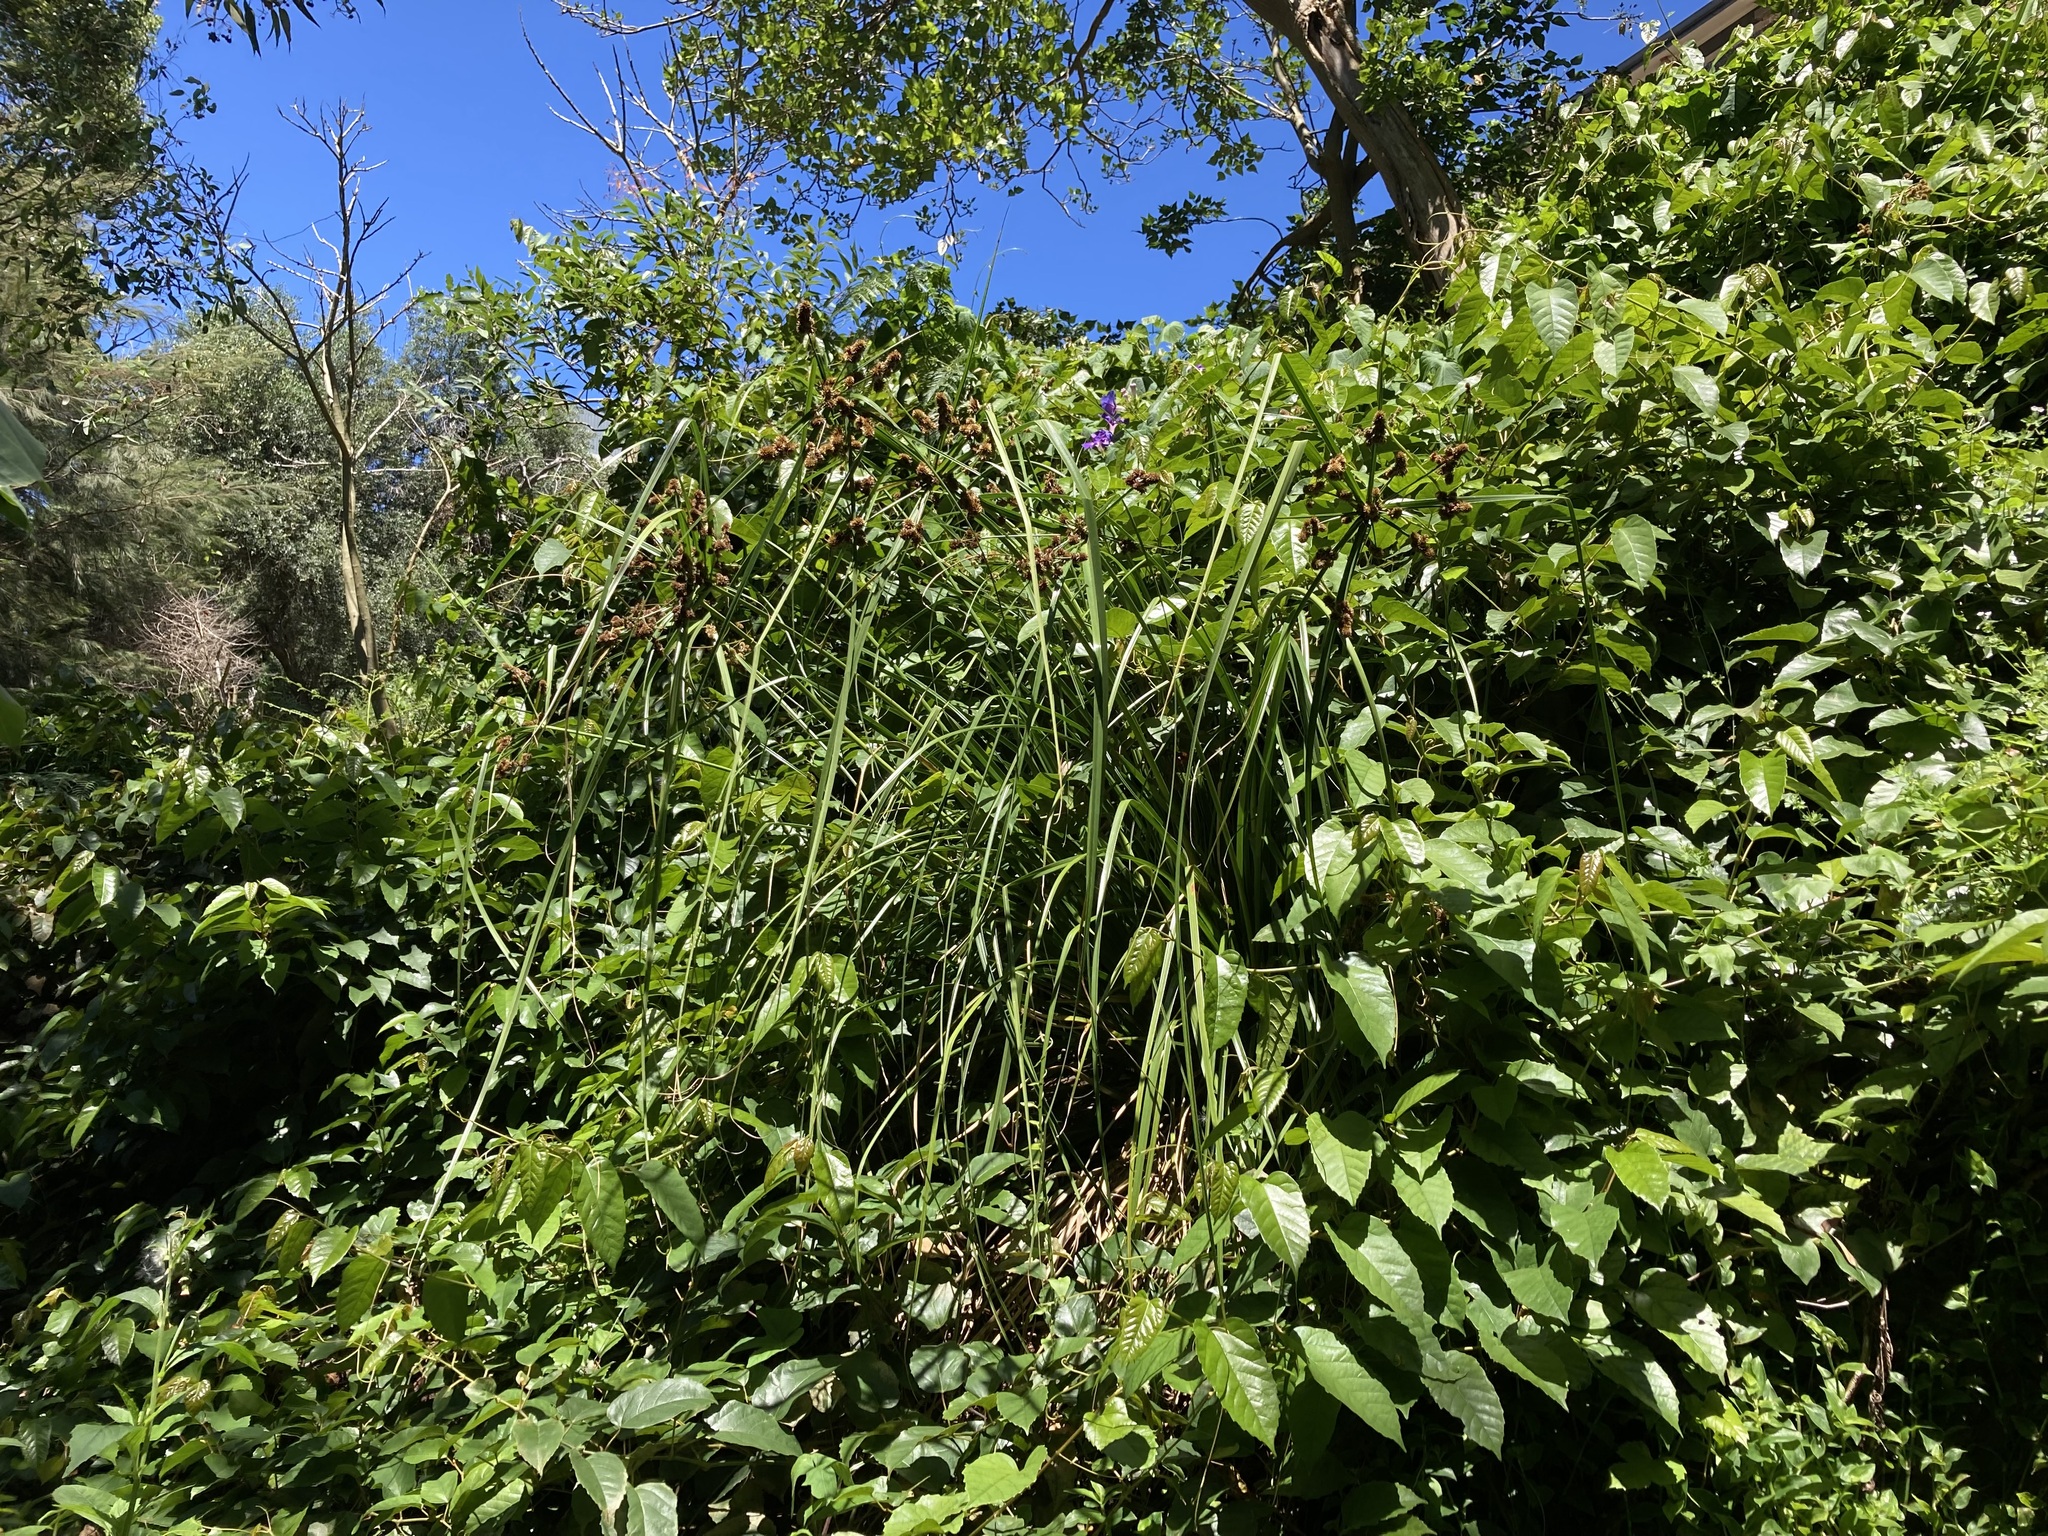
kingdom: Plantae
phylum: Tracheophyta
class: Liliopsida
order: Poales
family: Cyperaceae
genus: Cyperus
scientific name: Cyperus vorsteri
